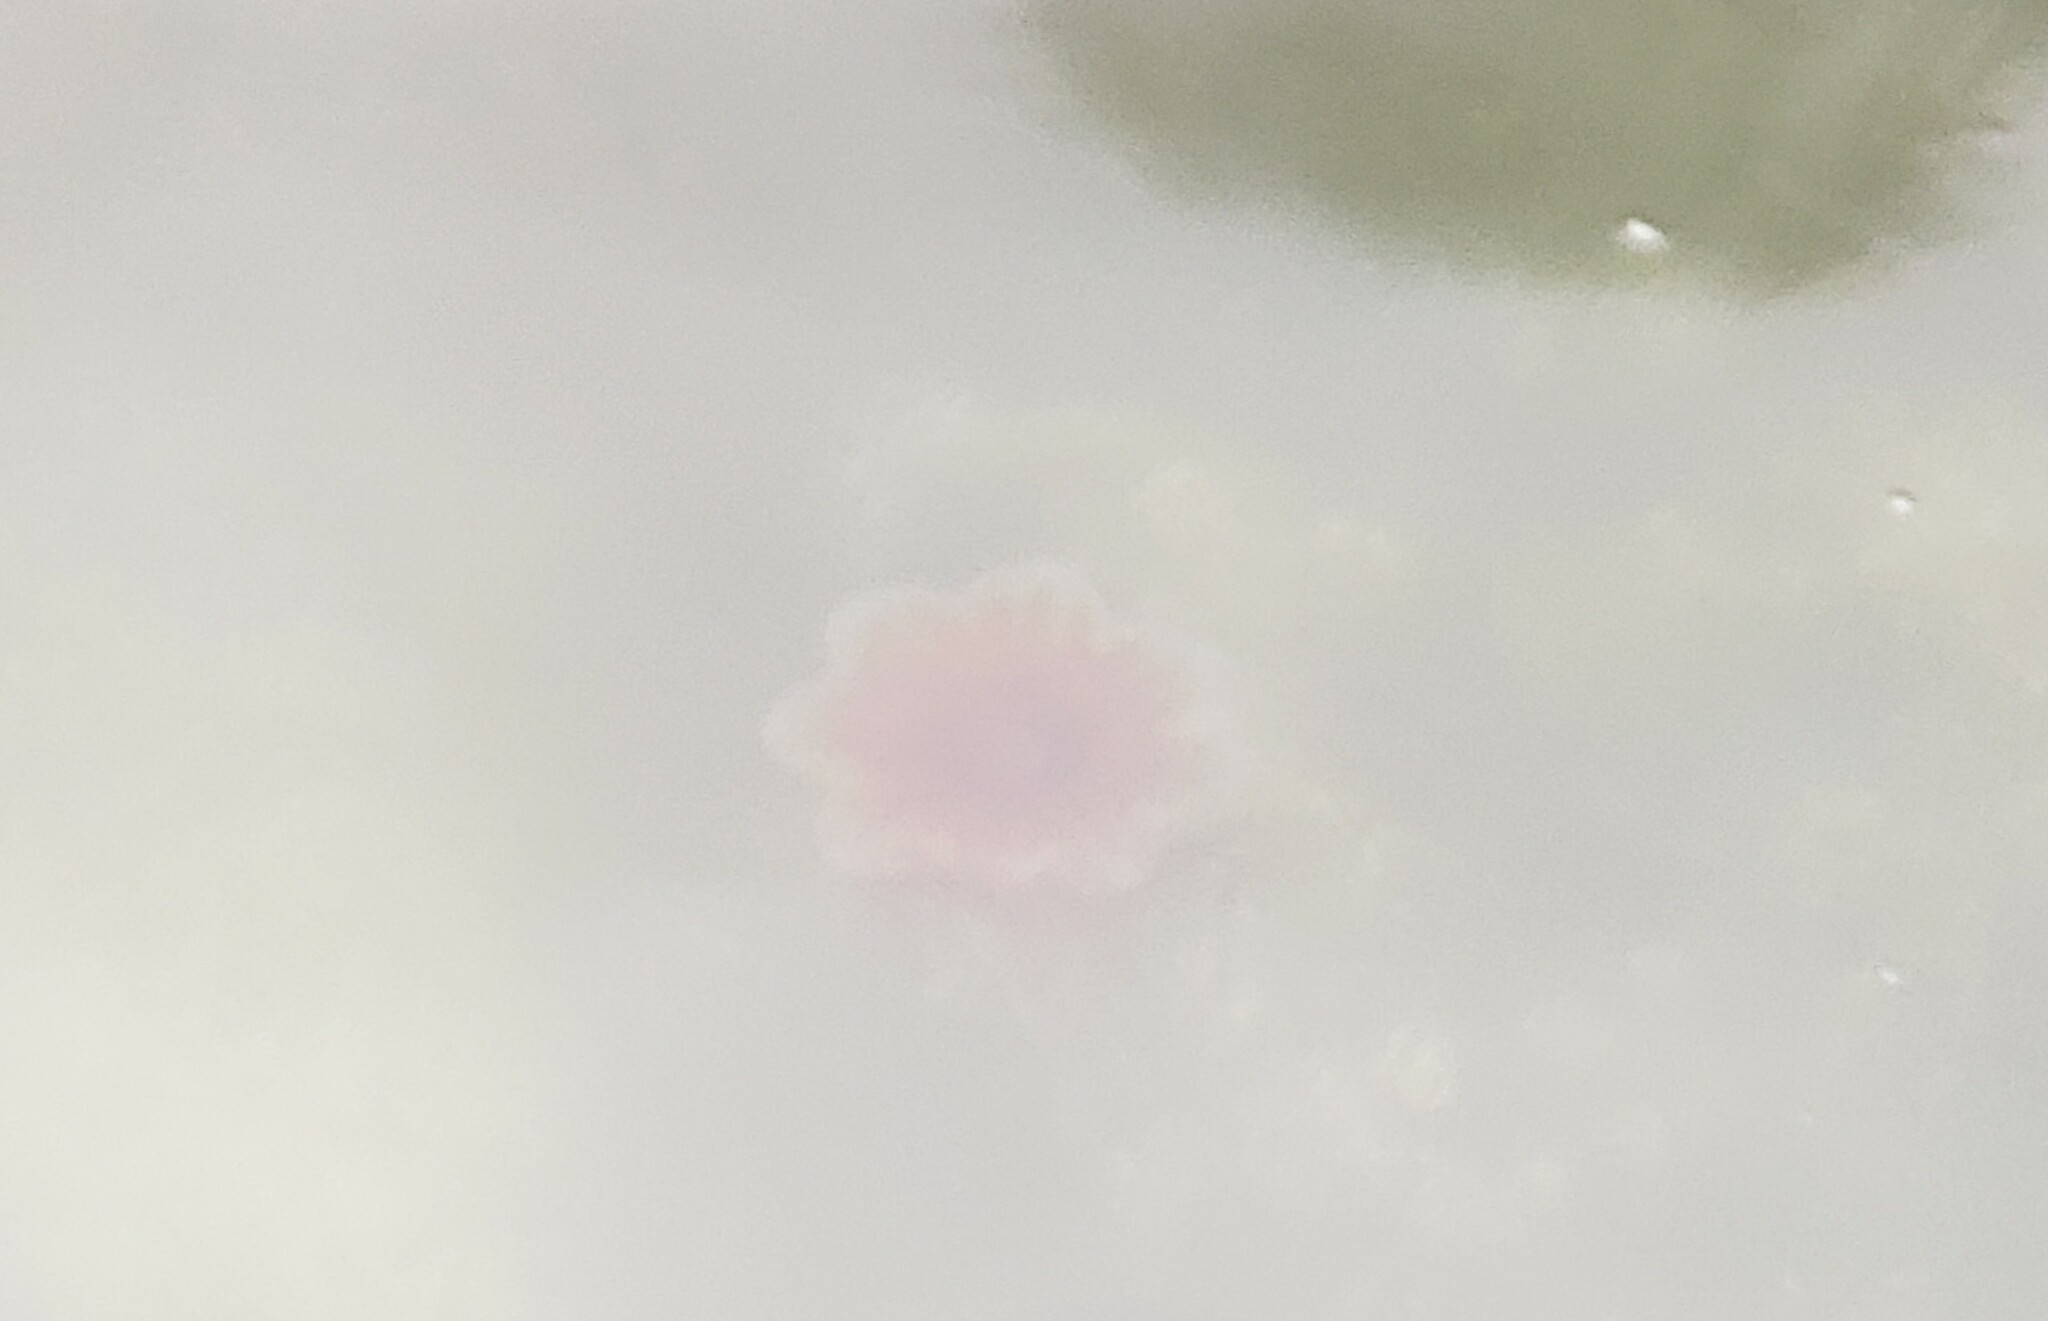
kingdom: Animalia
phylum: Cnidaria
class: Scyphozoa
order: Semaeostomeae
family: Cyaneidae
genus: Cyanea
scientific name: Cyanea ferruginea
